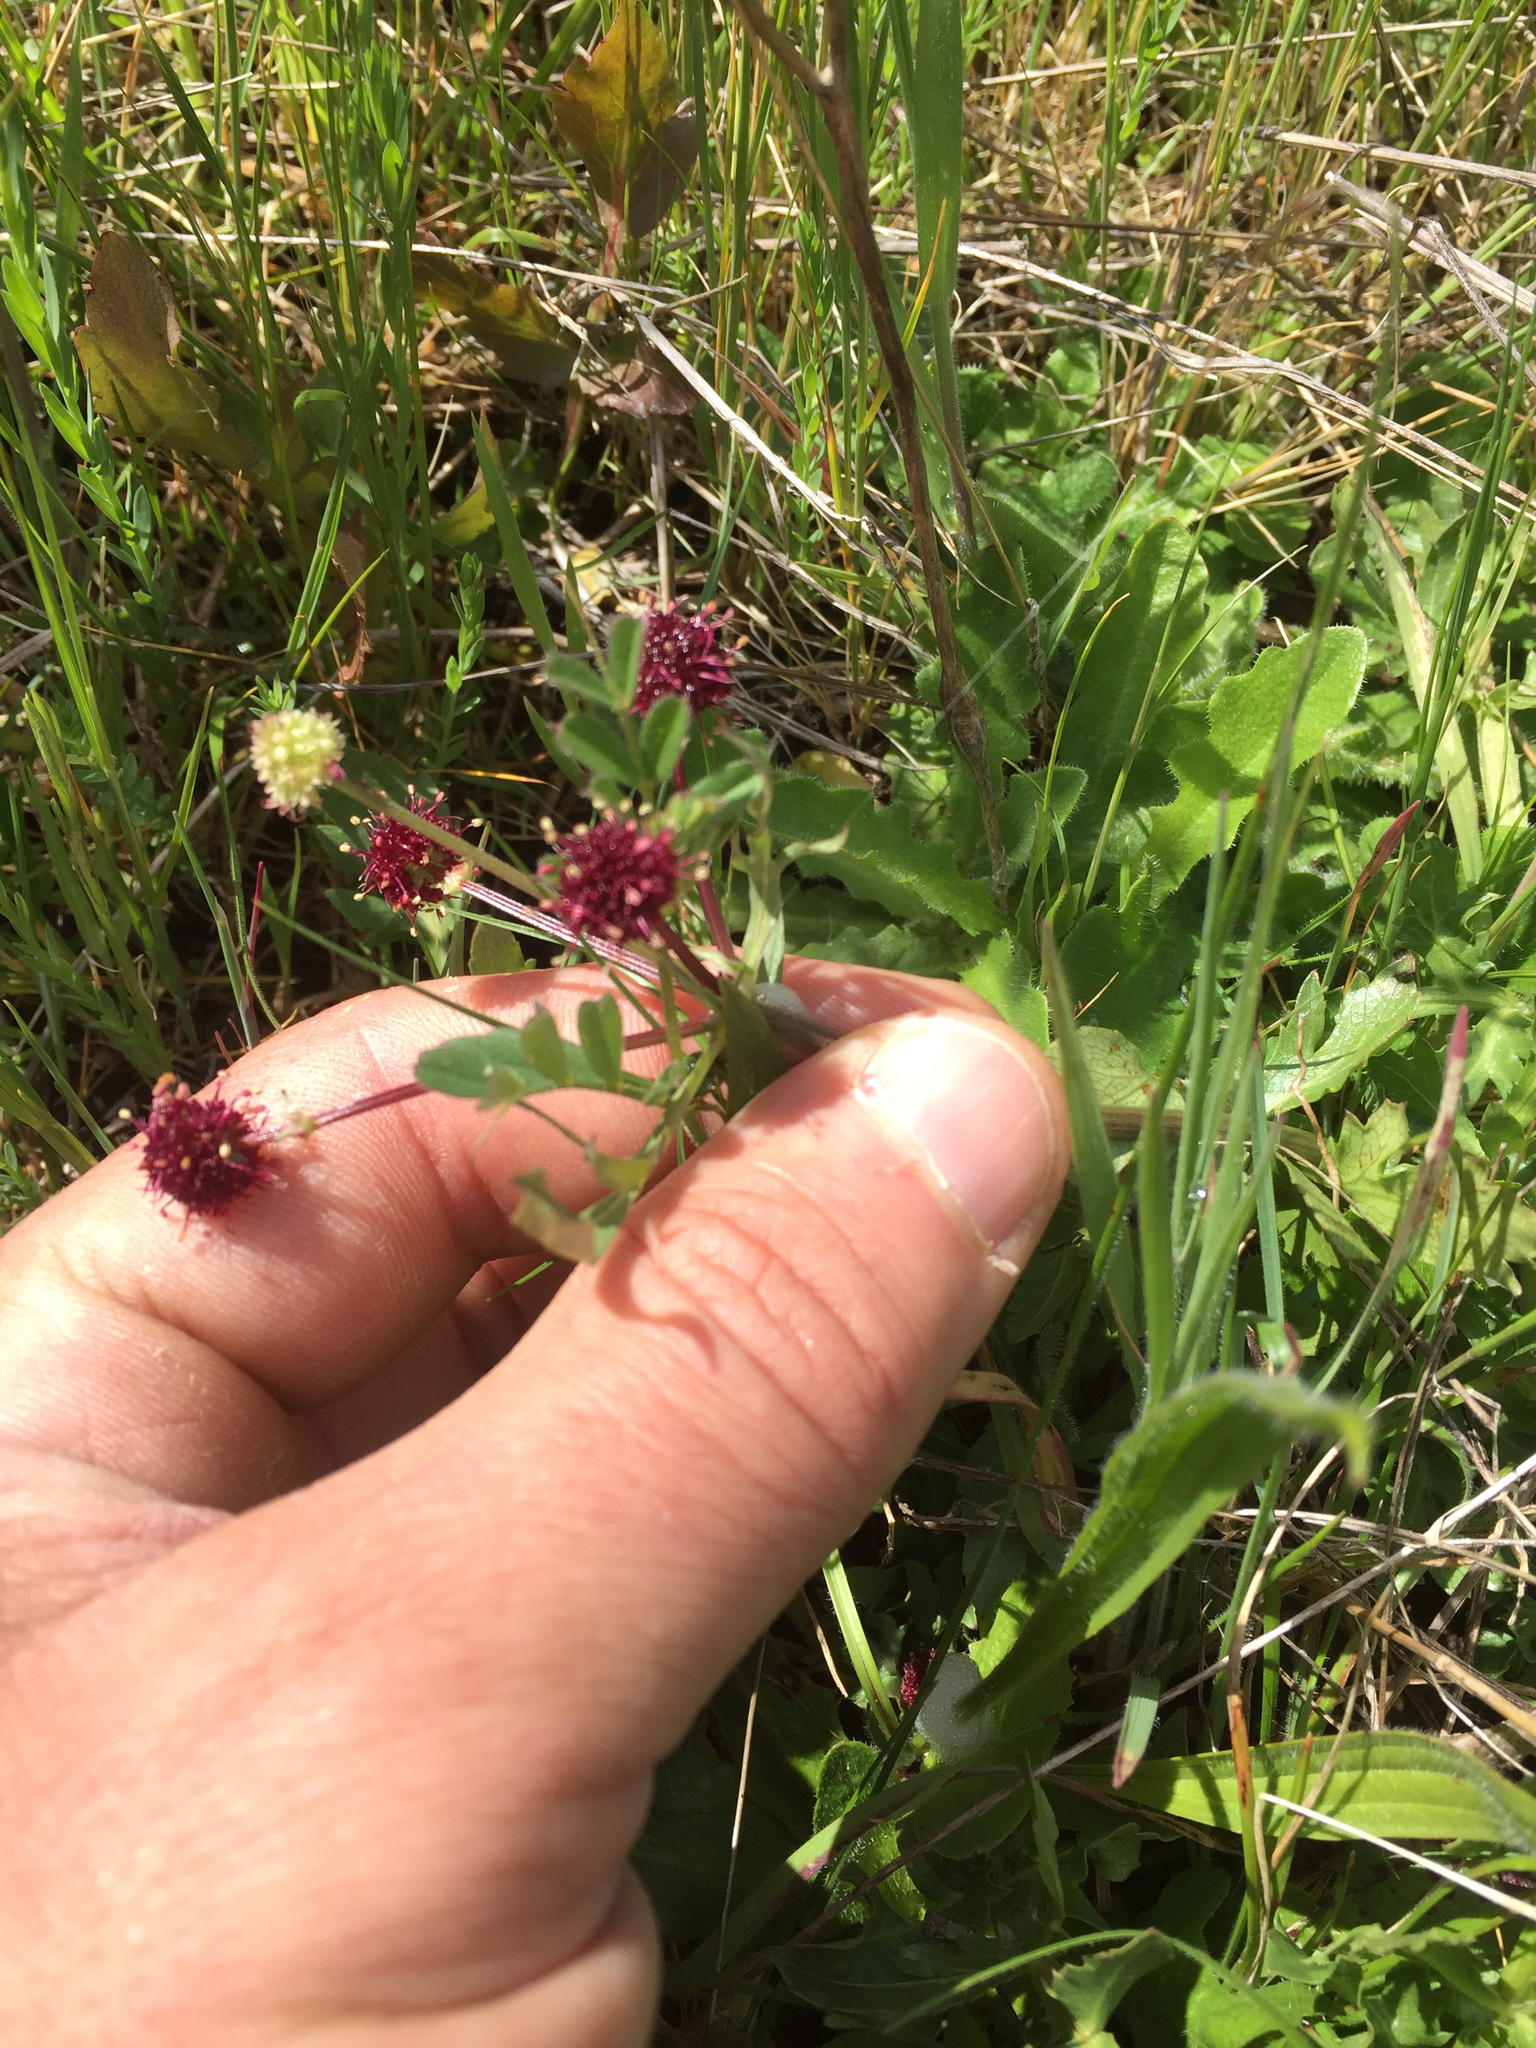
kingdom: Plantae
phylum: Tracheophyta
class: Magnoliopsida
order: Apiales
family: Apiaceae
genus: Sanicula
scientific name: Sanicula bipinnatifida
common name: Shoe-buttons
